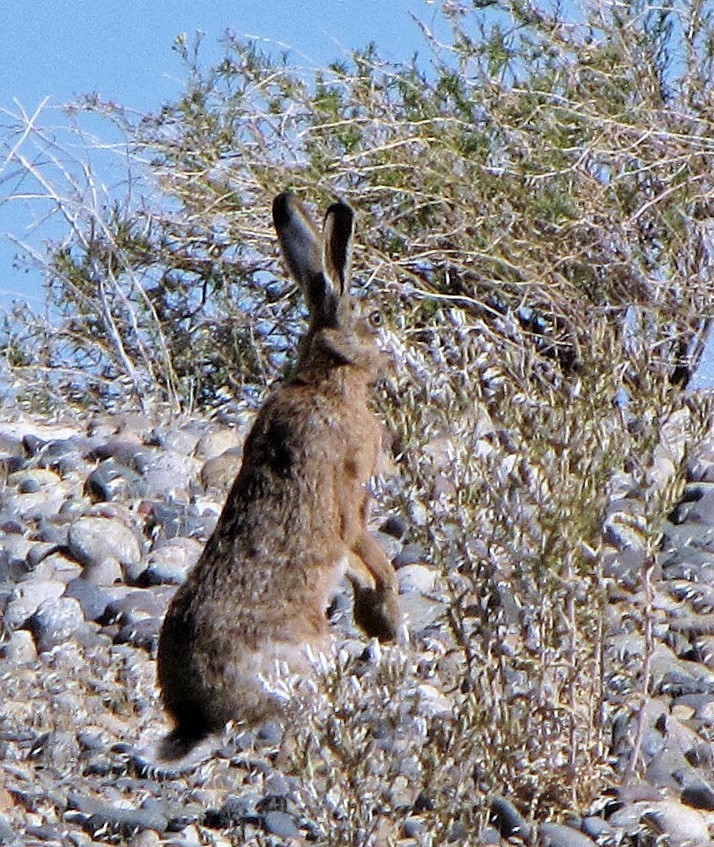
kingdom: Animalia
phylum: Chordata
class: Mammalia
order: Lagomorpha
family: Leporidae
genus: Lepus
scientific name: Lepus europaeus
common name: European hare
